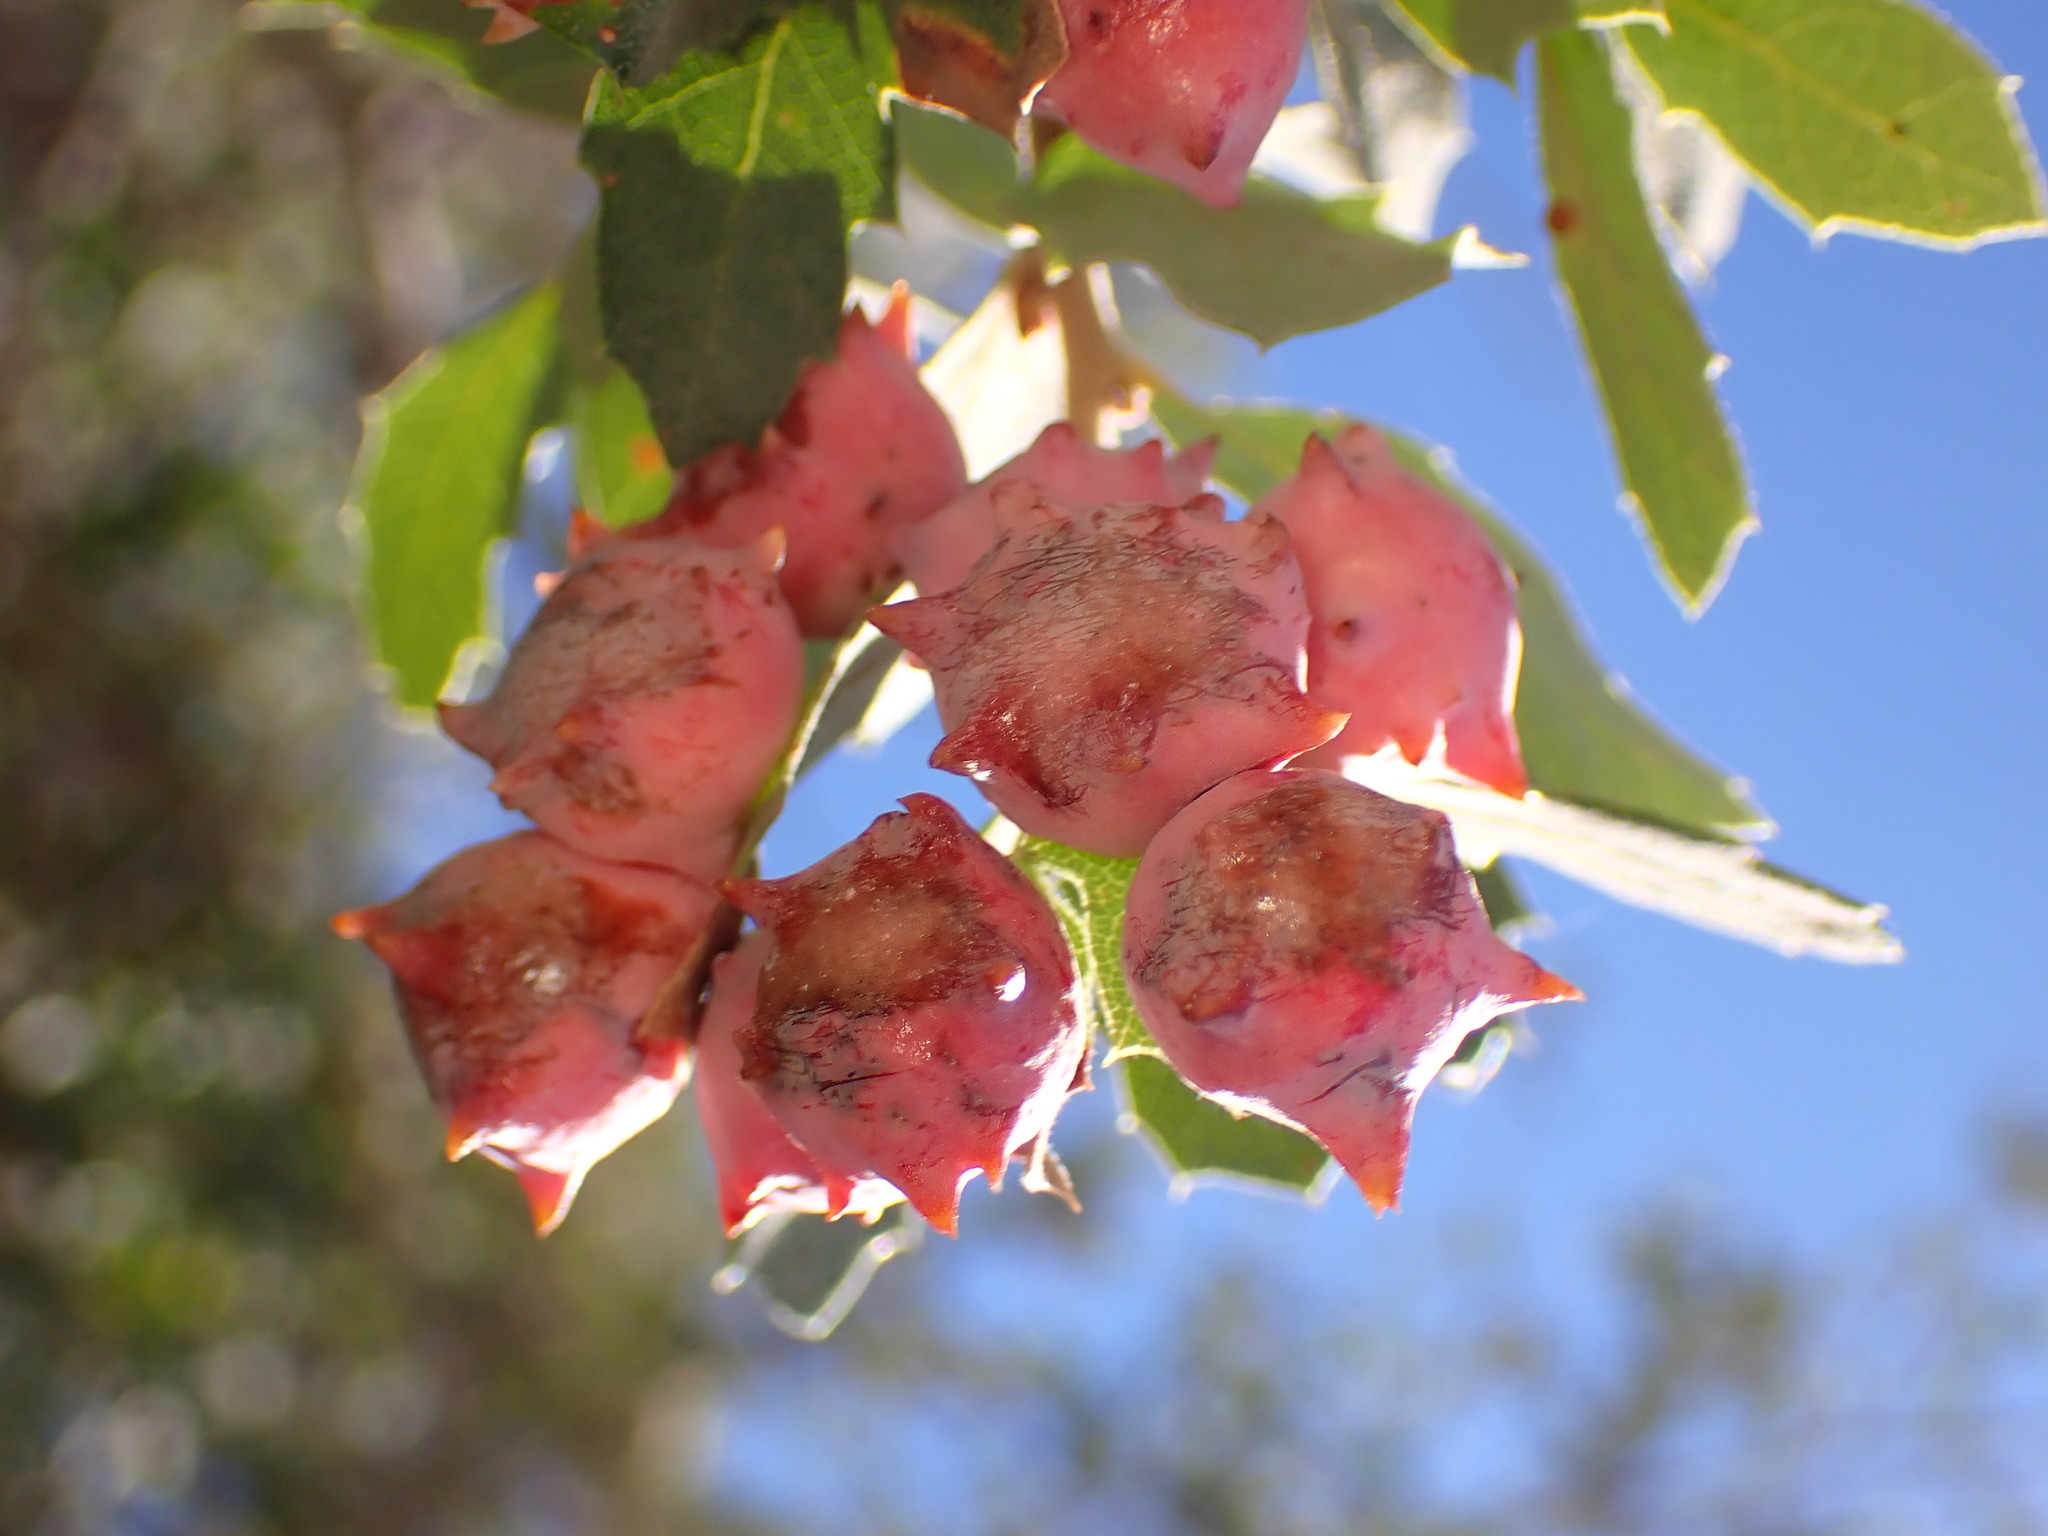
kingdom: Animalia
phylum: Arthropoda
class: Insecta
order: Hymenoptera
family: Cynipidae
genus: Cynips
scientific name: Cynips douglasi
